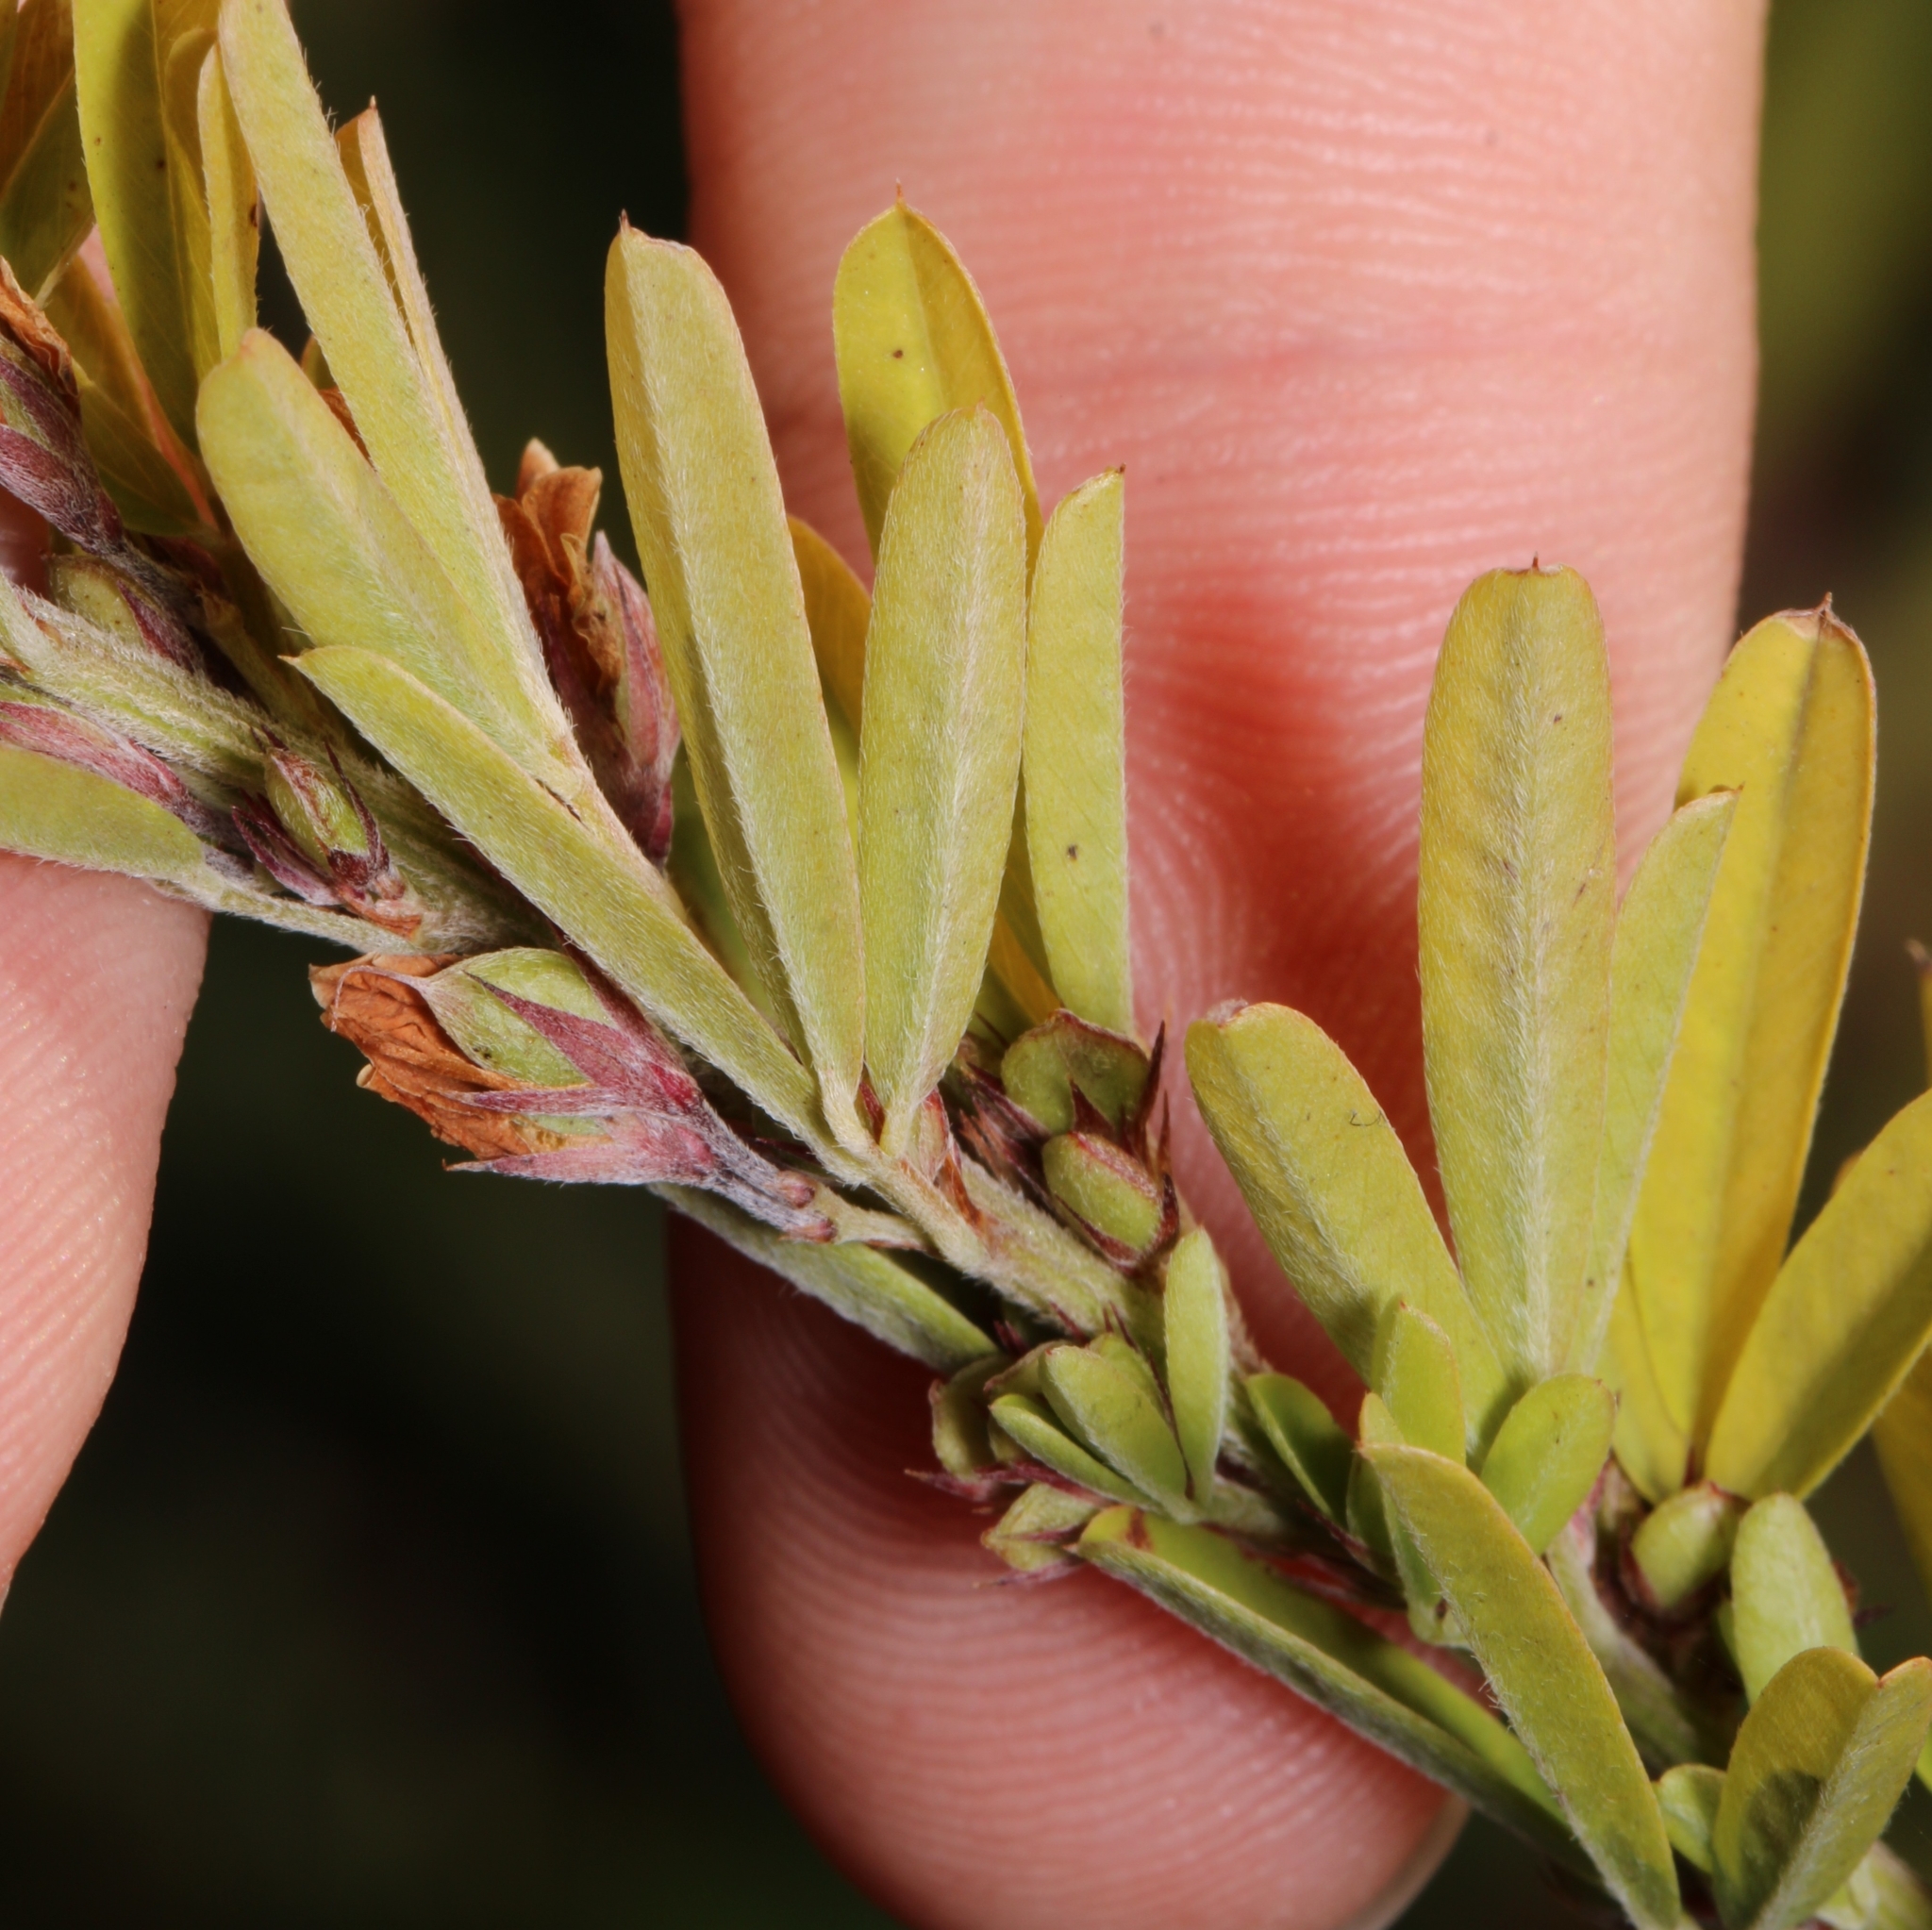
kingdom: Plantae
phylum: Tracheophyta
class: Magnoliopsida
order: Fabales
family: Fabaceae
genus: Lespedeza
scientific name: Lespedeza cuneata
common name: Chinese bush-clover
